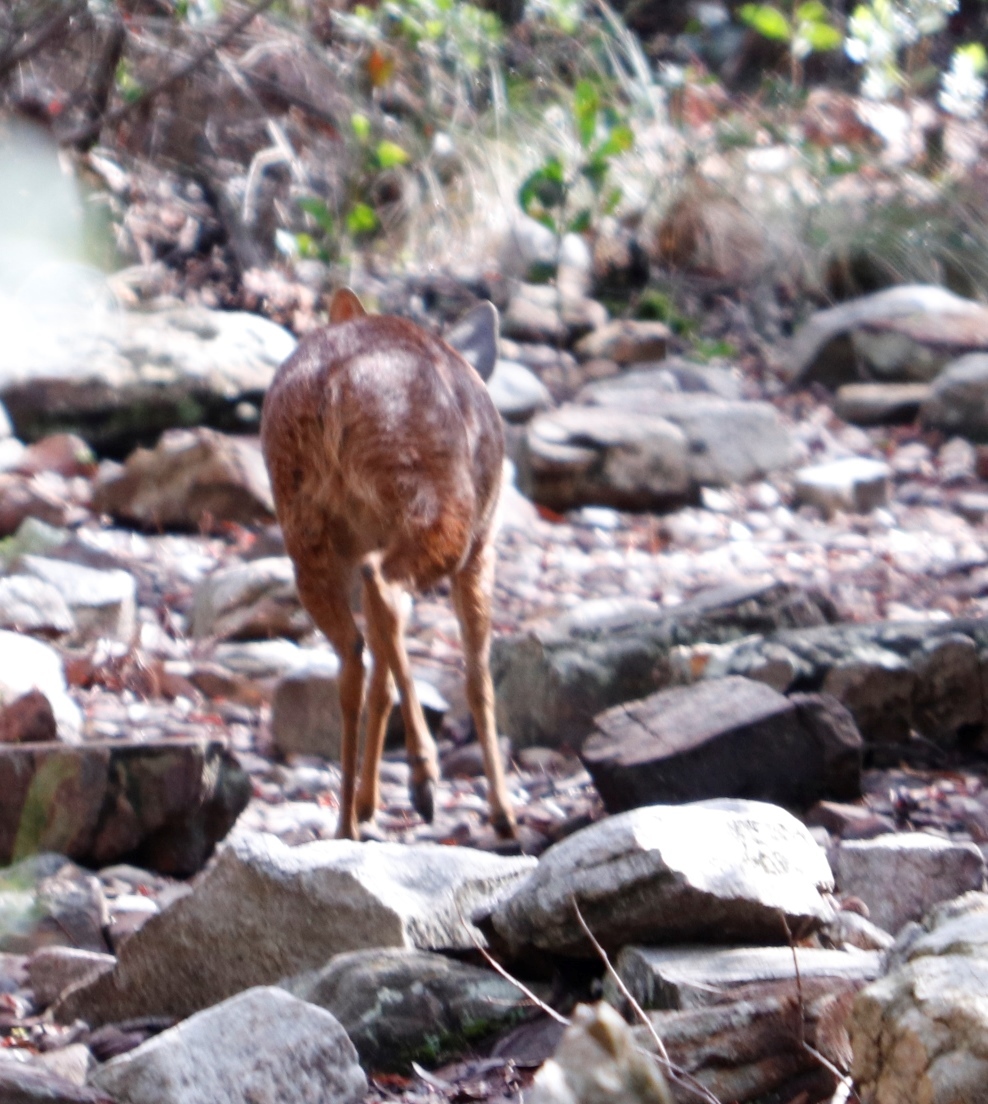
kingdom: Animalia
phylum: Chordata
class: Mammalia
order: Artiodactyla
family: Bovidae
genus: Raphicerus
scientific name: Raphicerus melanotis
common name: Cape grysbok
